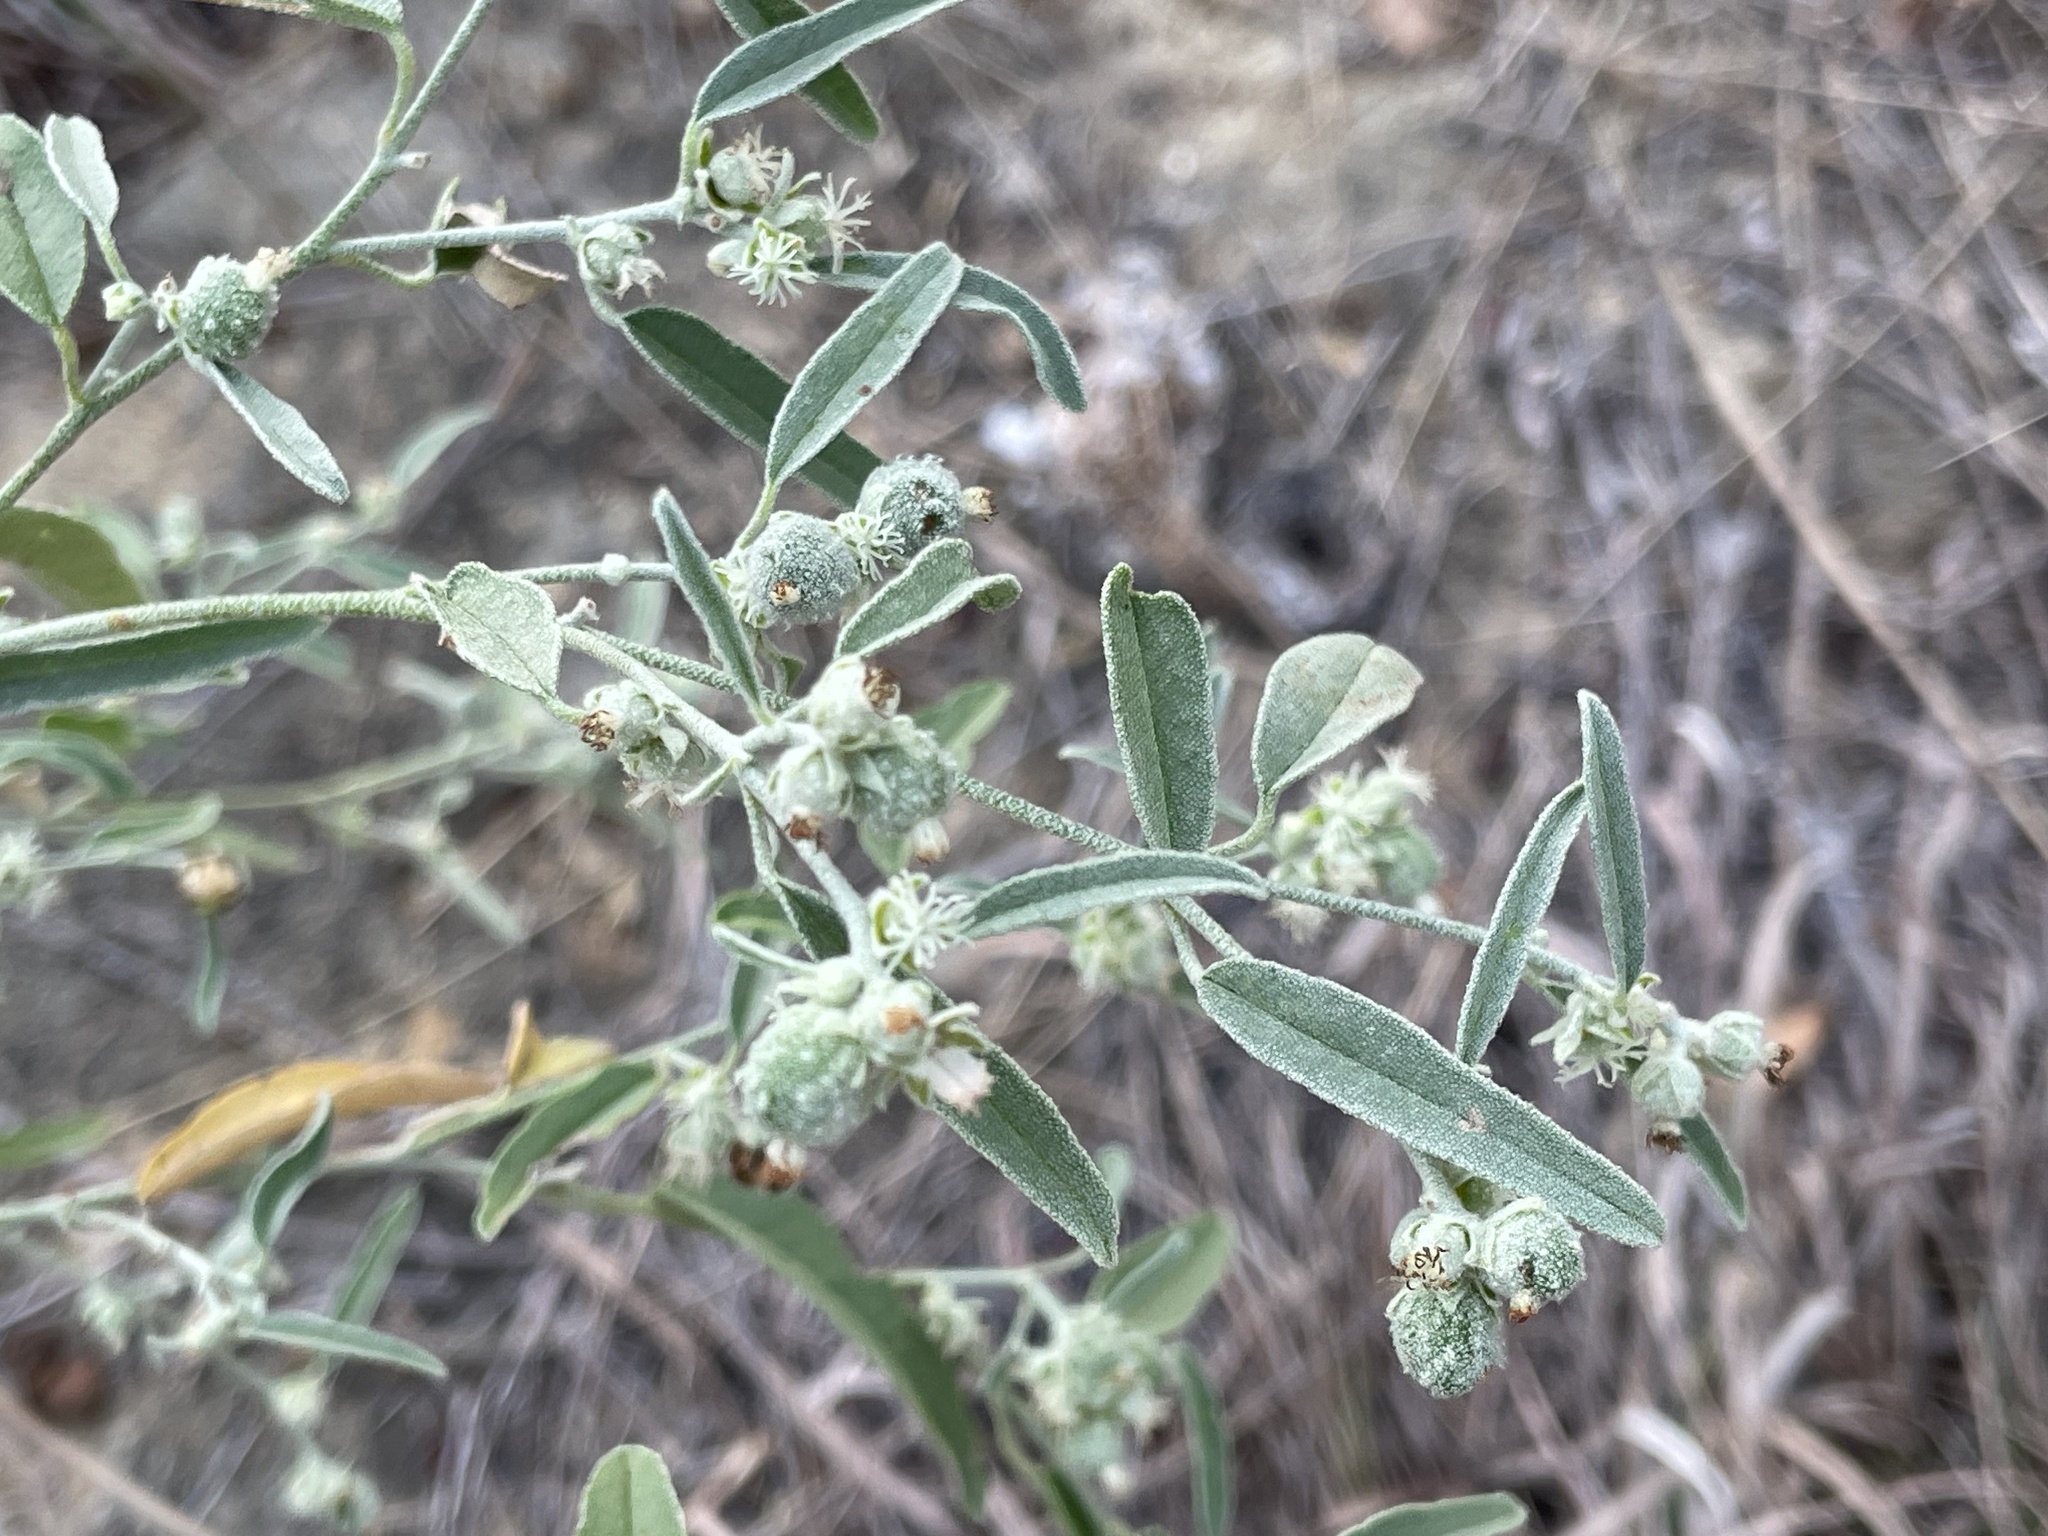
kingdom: Plantae
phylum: Tracheophyta
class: Magnoliopsida
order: Malpighiales
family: Euphorbiaceae
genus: Croton
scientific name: Croton texensis
